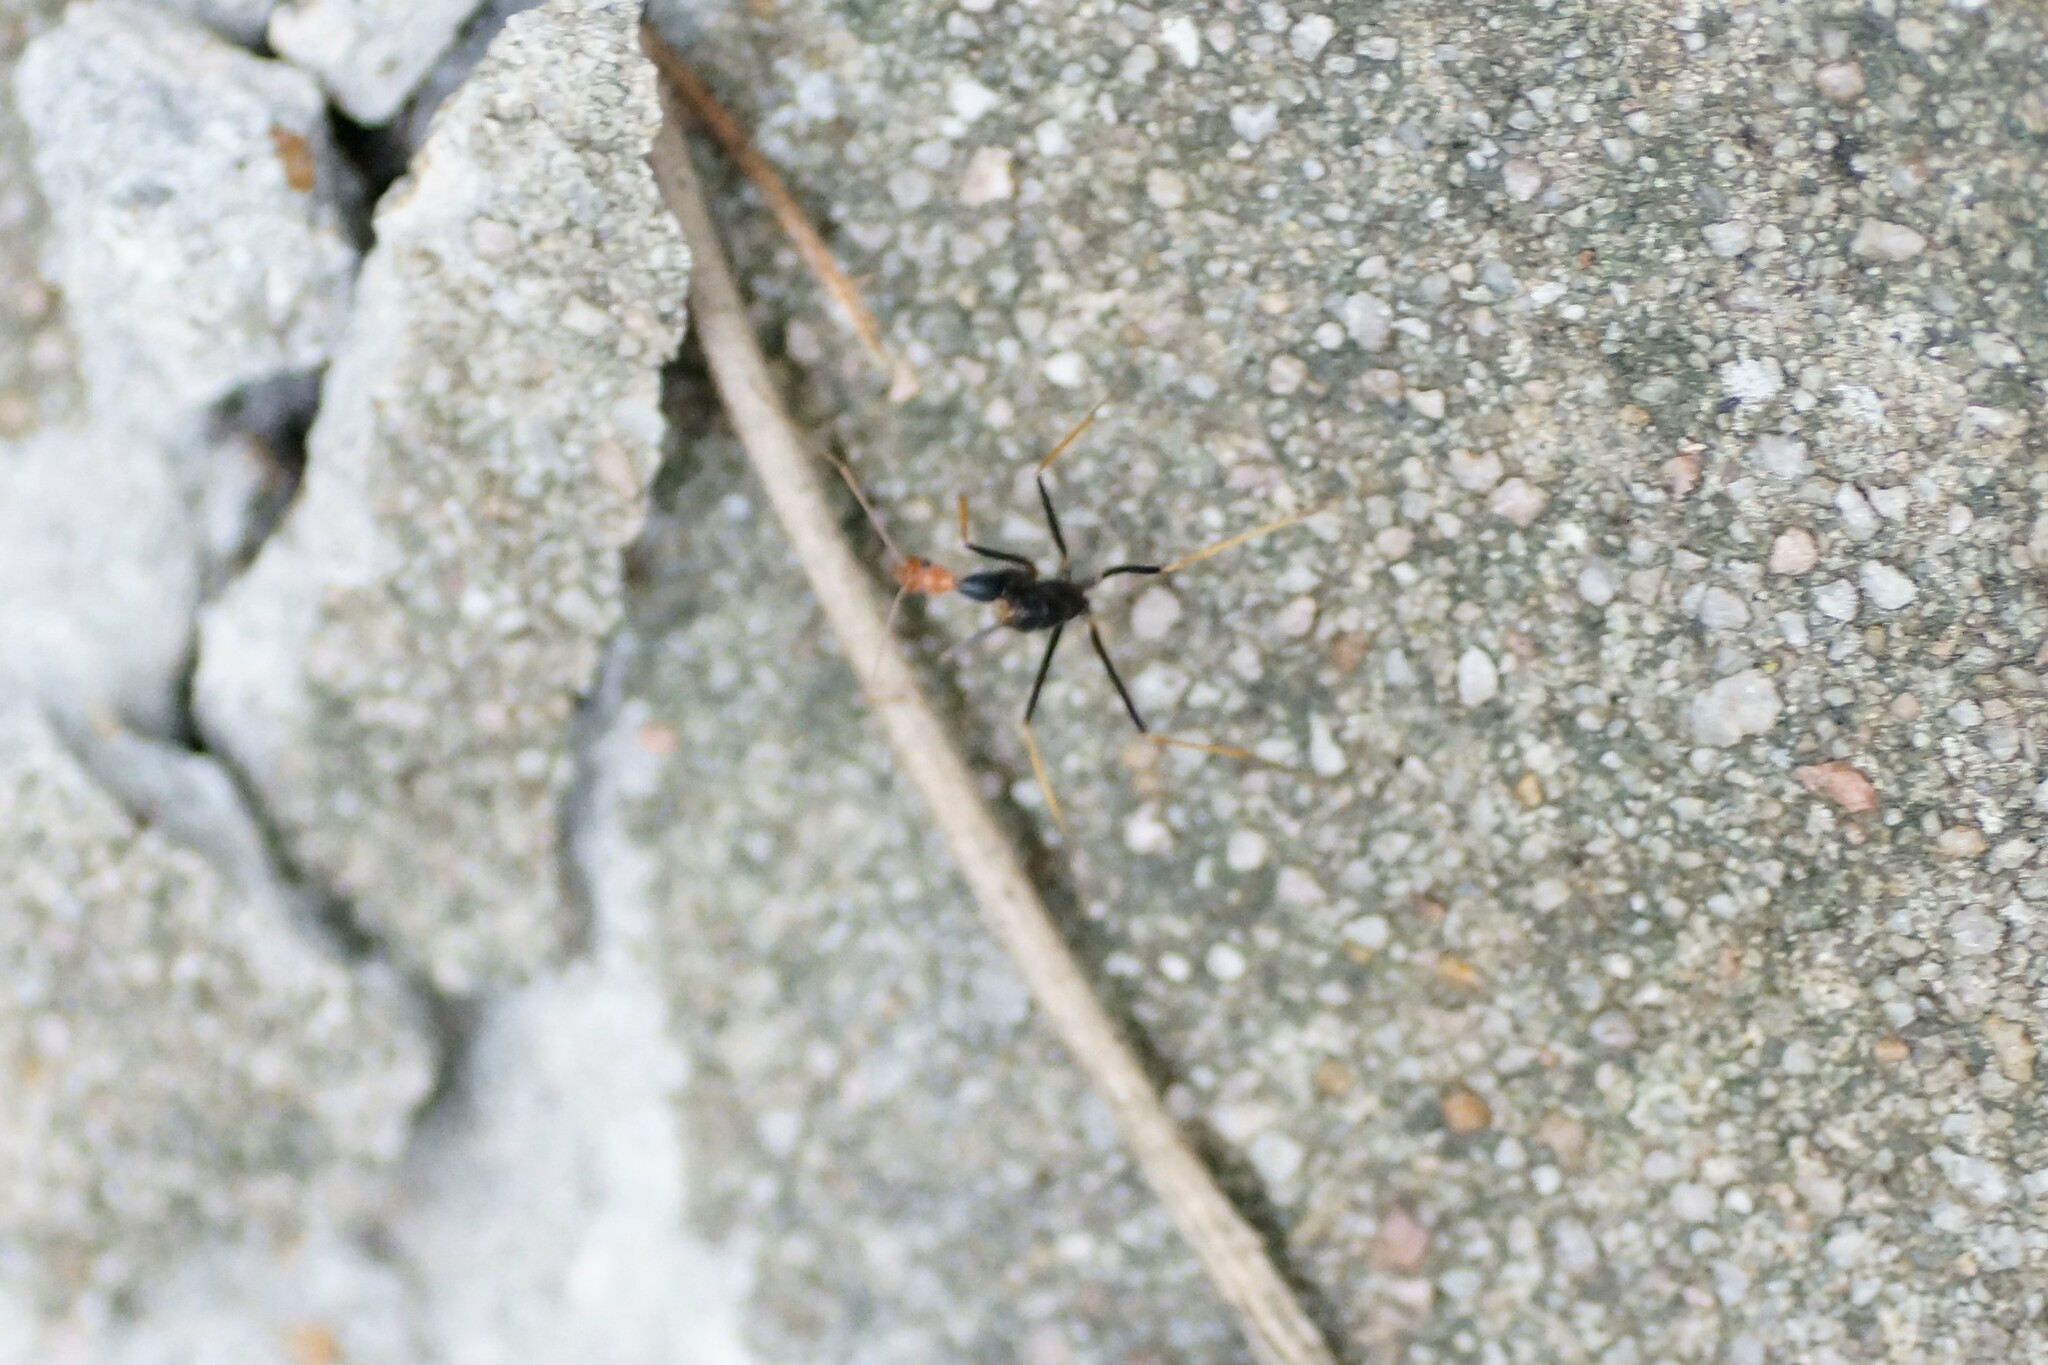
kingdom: Animalia
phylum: Arthropoda
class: Insecta
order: Hymenoptera
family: Formicidae
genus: Leptomyrmex
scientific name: Leptomyrmex ruficeps
